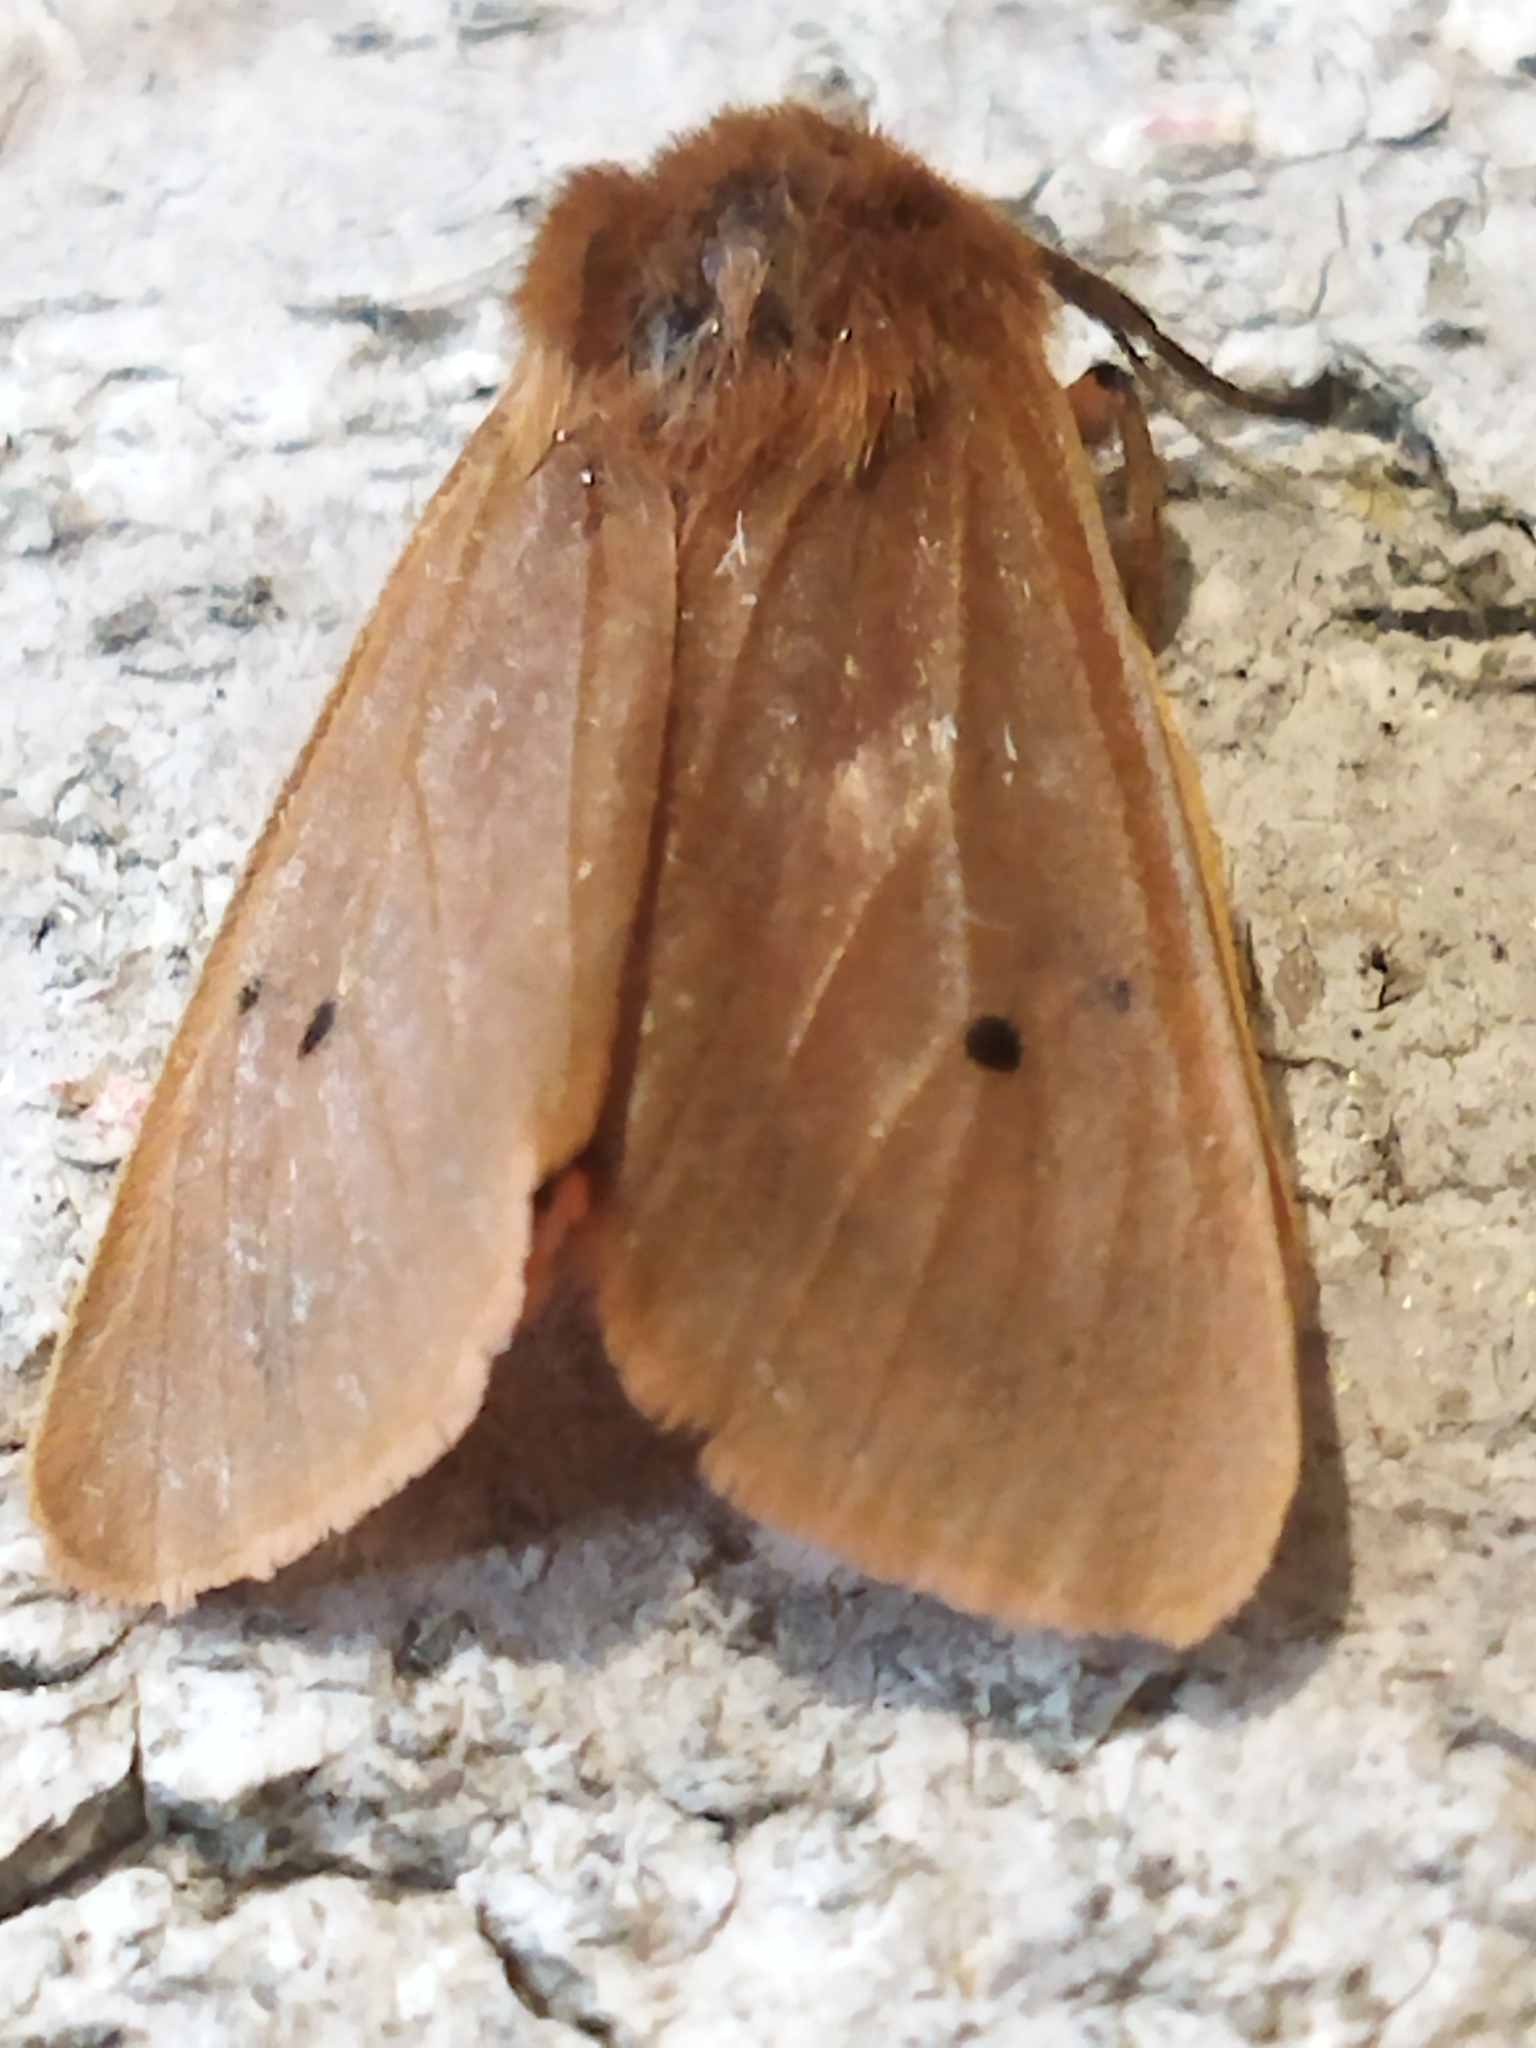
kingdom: Animalia
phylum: Arthropoda
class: Insecta
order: Lepidoptera
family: Erebidae
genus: Phragmatobia
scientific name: Phragmatobia fuliginosa
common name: Ruby tiger
